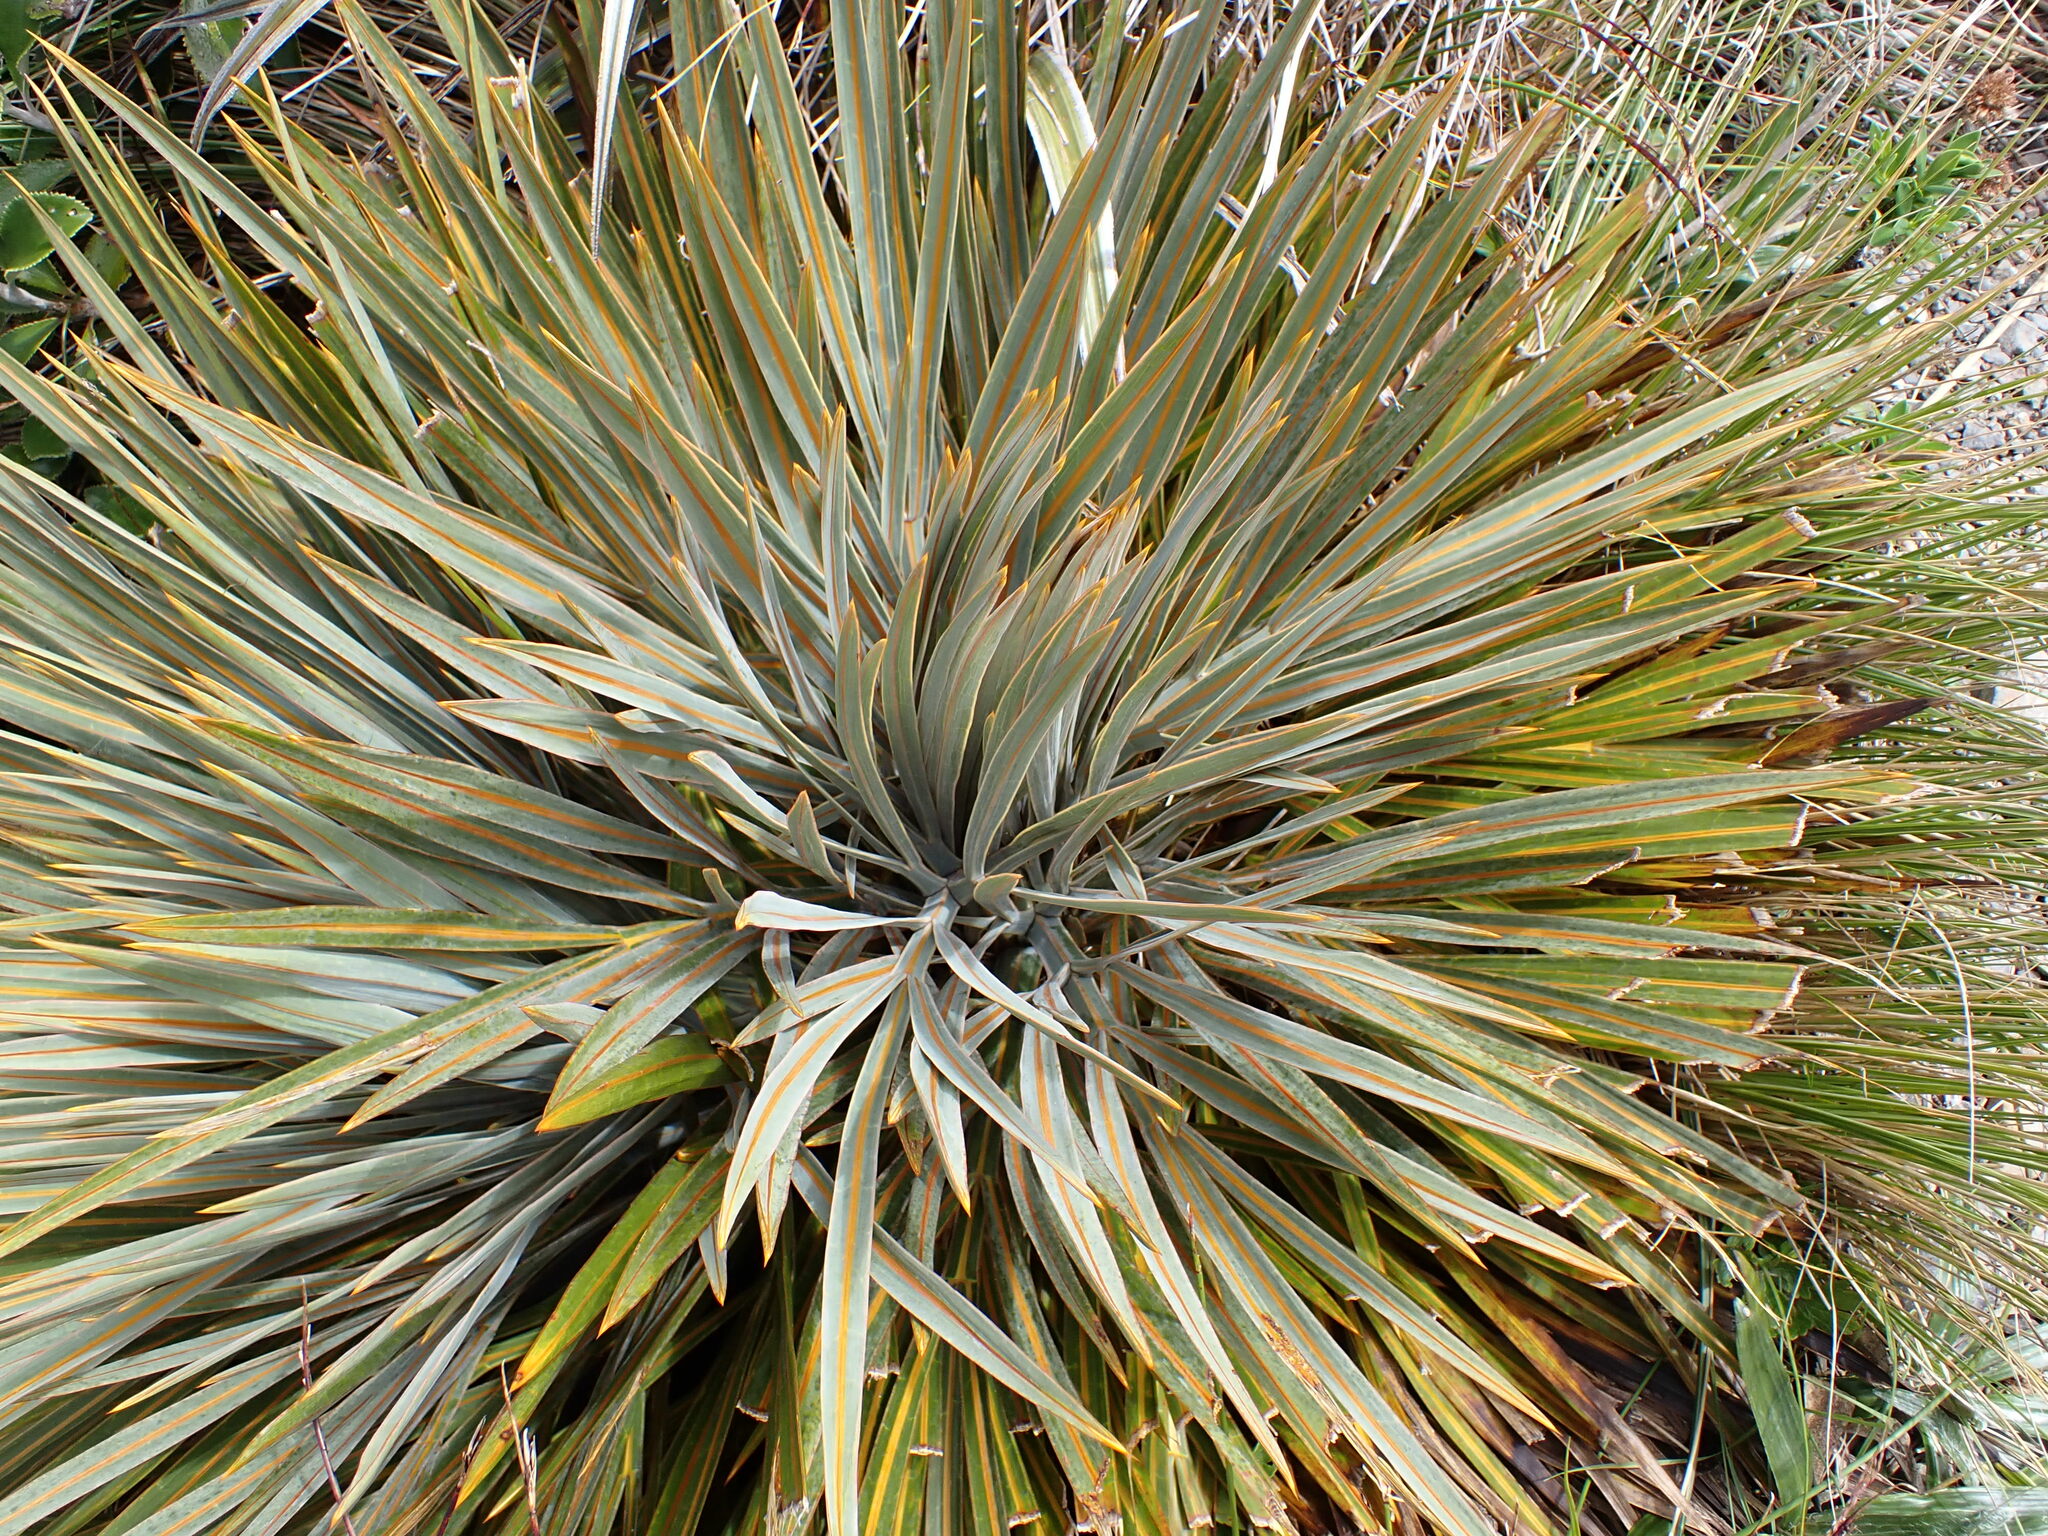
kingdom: Plantae
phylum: Tracheophyta
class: Magnoliopsida
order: Apiales
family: Apiaceae
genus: Aciphylla
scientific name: Aciphylla colensoi
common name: Colenso's spaniard
